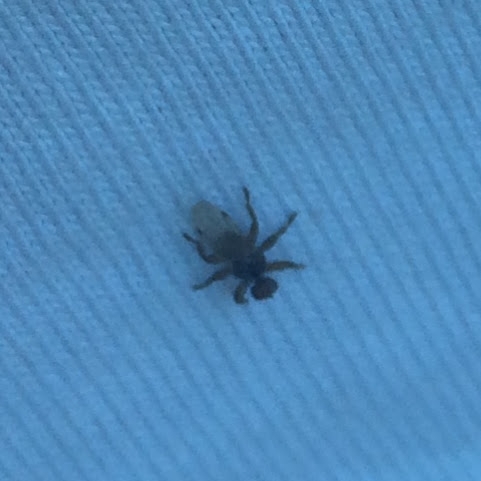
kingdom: Animalia
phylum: Arthropoda
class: Insecta
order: Diptera
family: Hippoboscidae
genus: Lipoptena
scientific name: Lipoptena depressa
